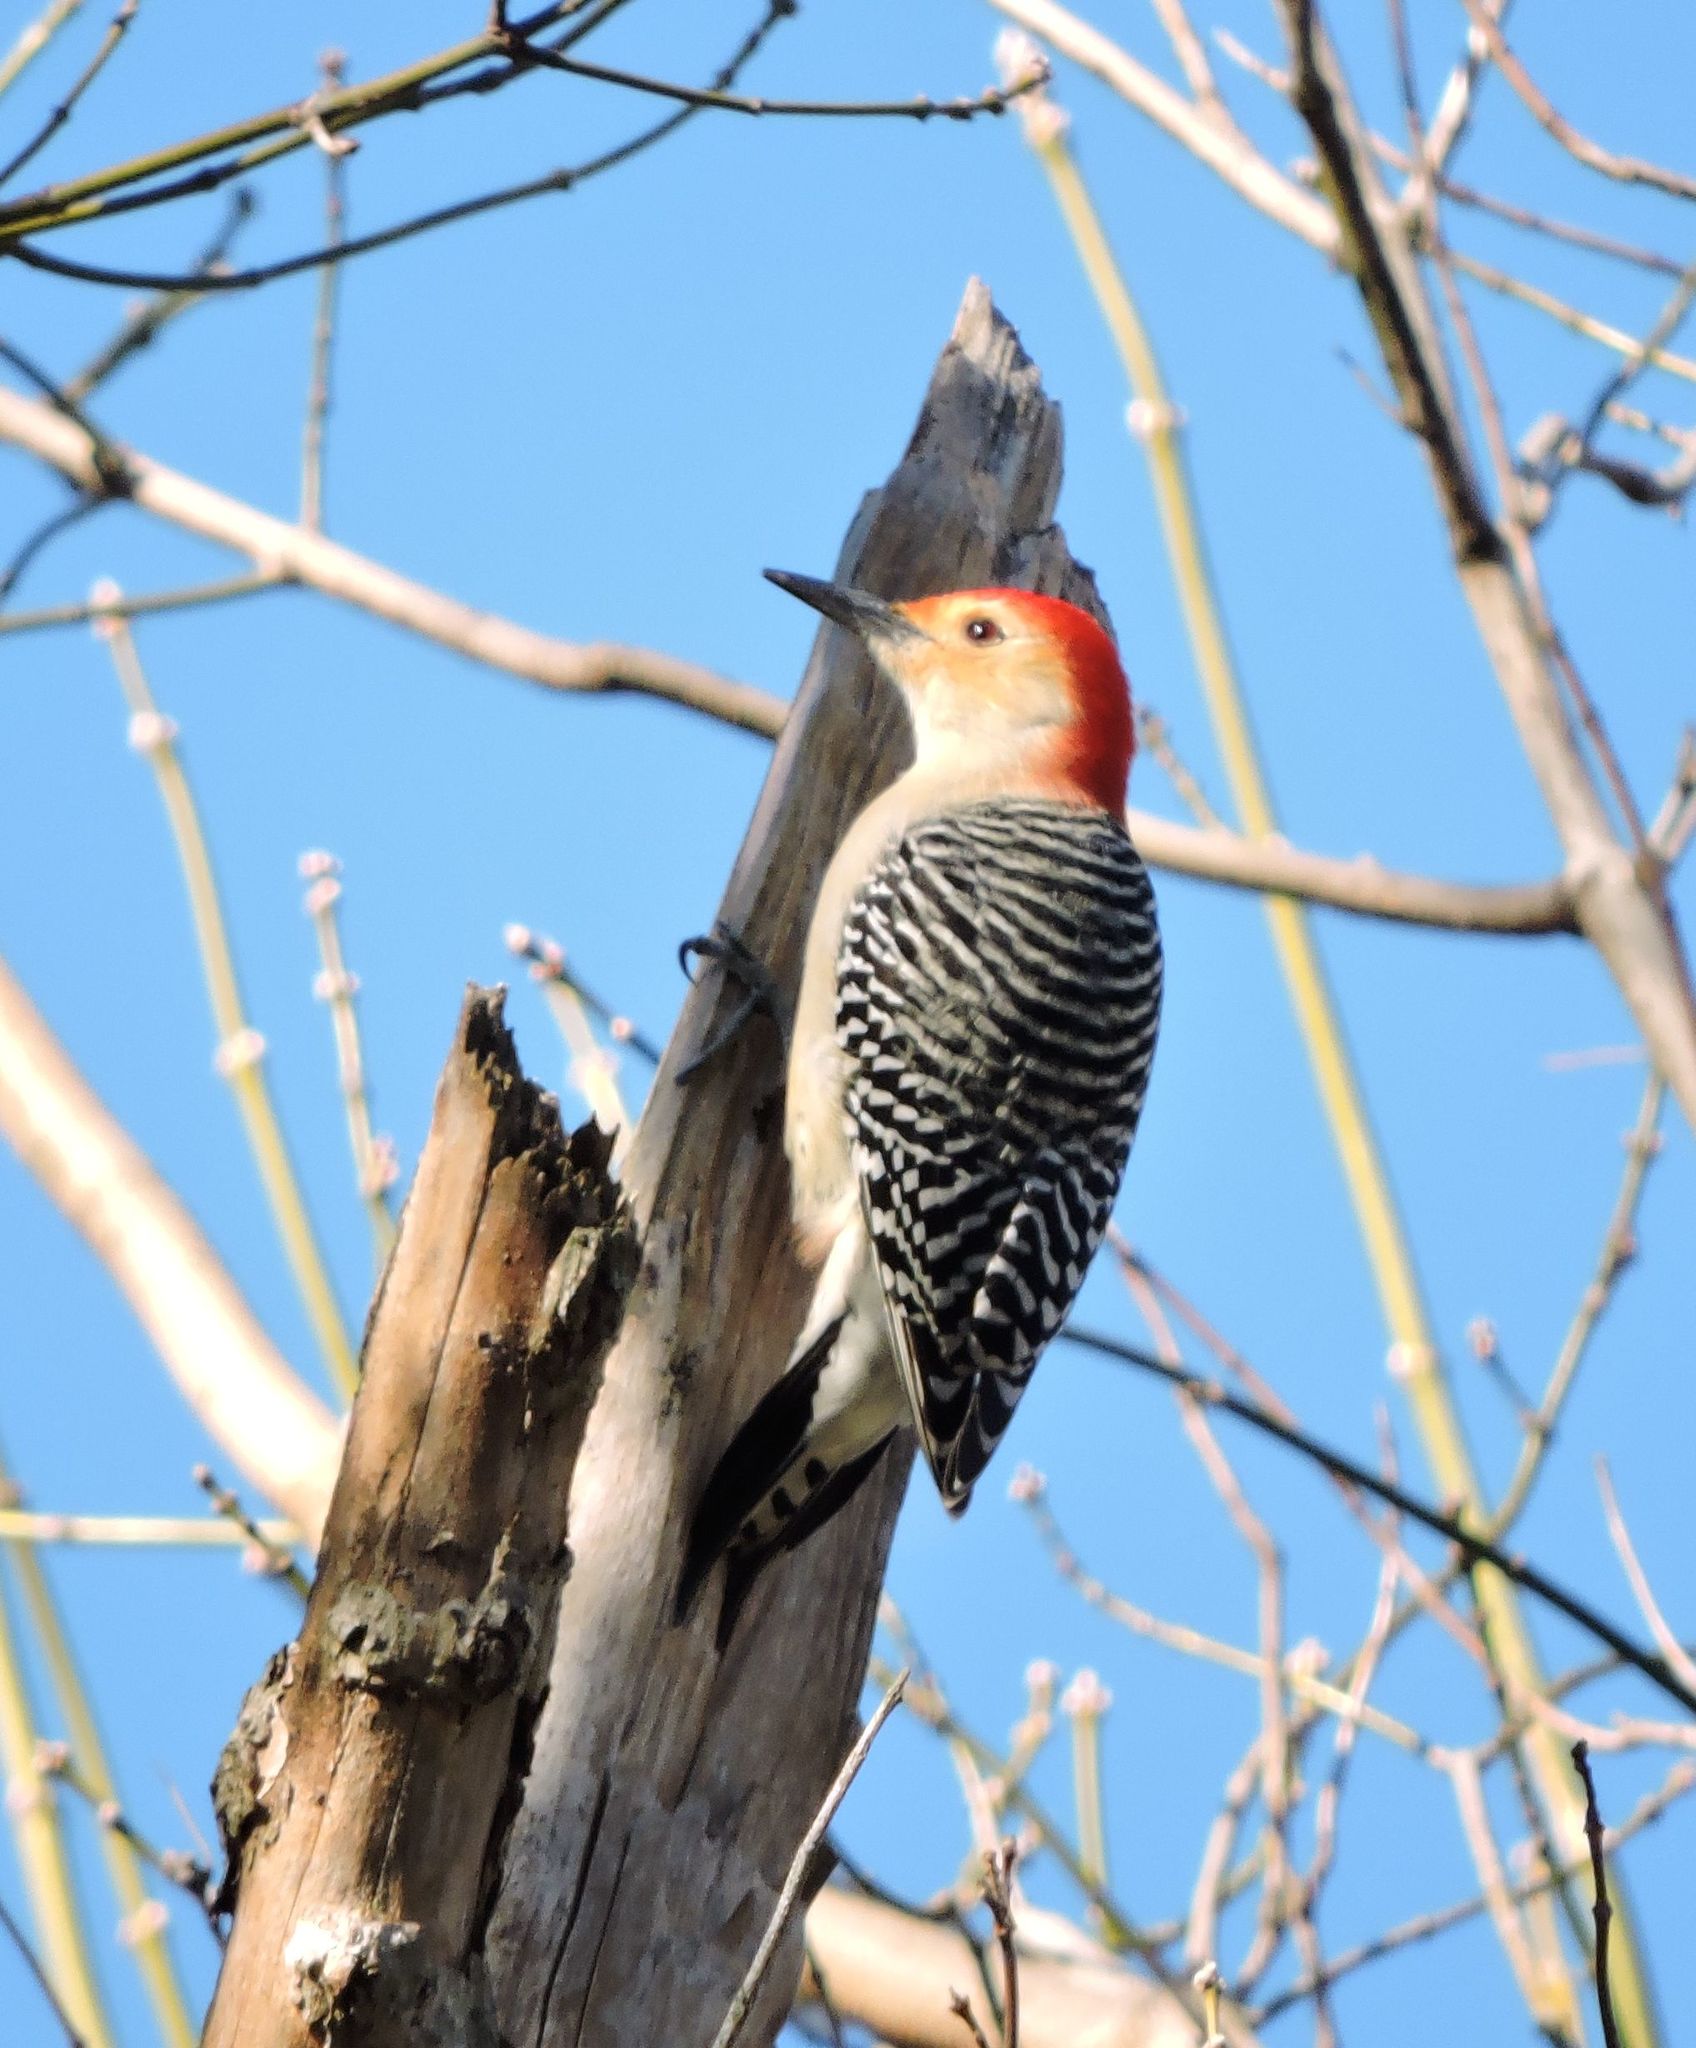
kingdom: Animalia
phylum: Chordata
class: Aves
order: Piciformes
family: Picidae
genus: Melanerpes
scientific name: Melanerpes carolinus
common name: Red-bellied woodpecker
